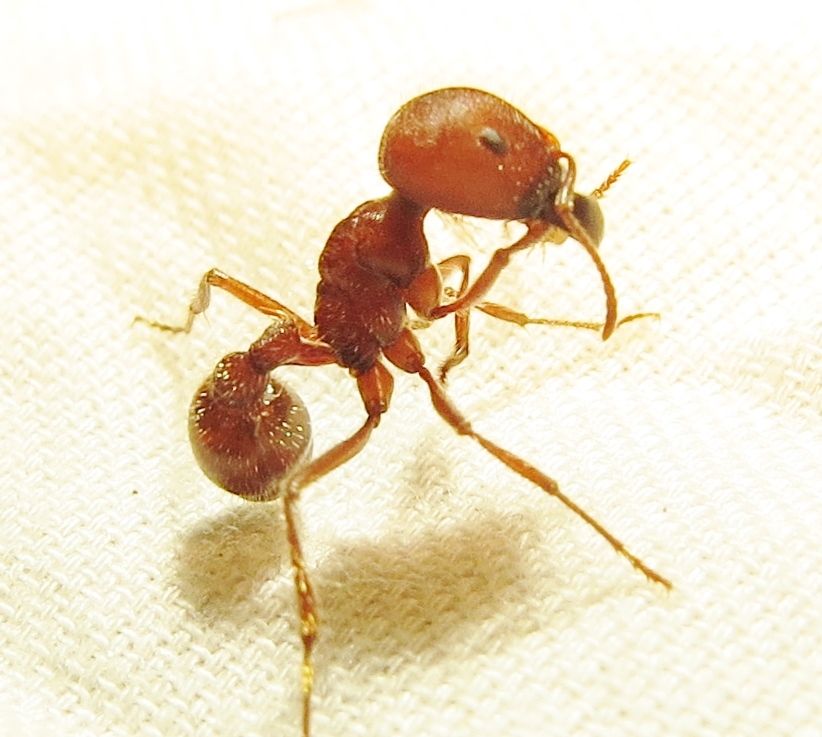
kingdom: Animalia
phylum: Arthropoda
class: Insecta
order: Hymenoptera
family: Formicidae
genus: Pogonomyrmex
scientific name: Pogonomyrmex badius
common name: Florida harvester ant
